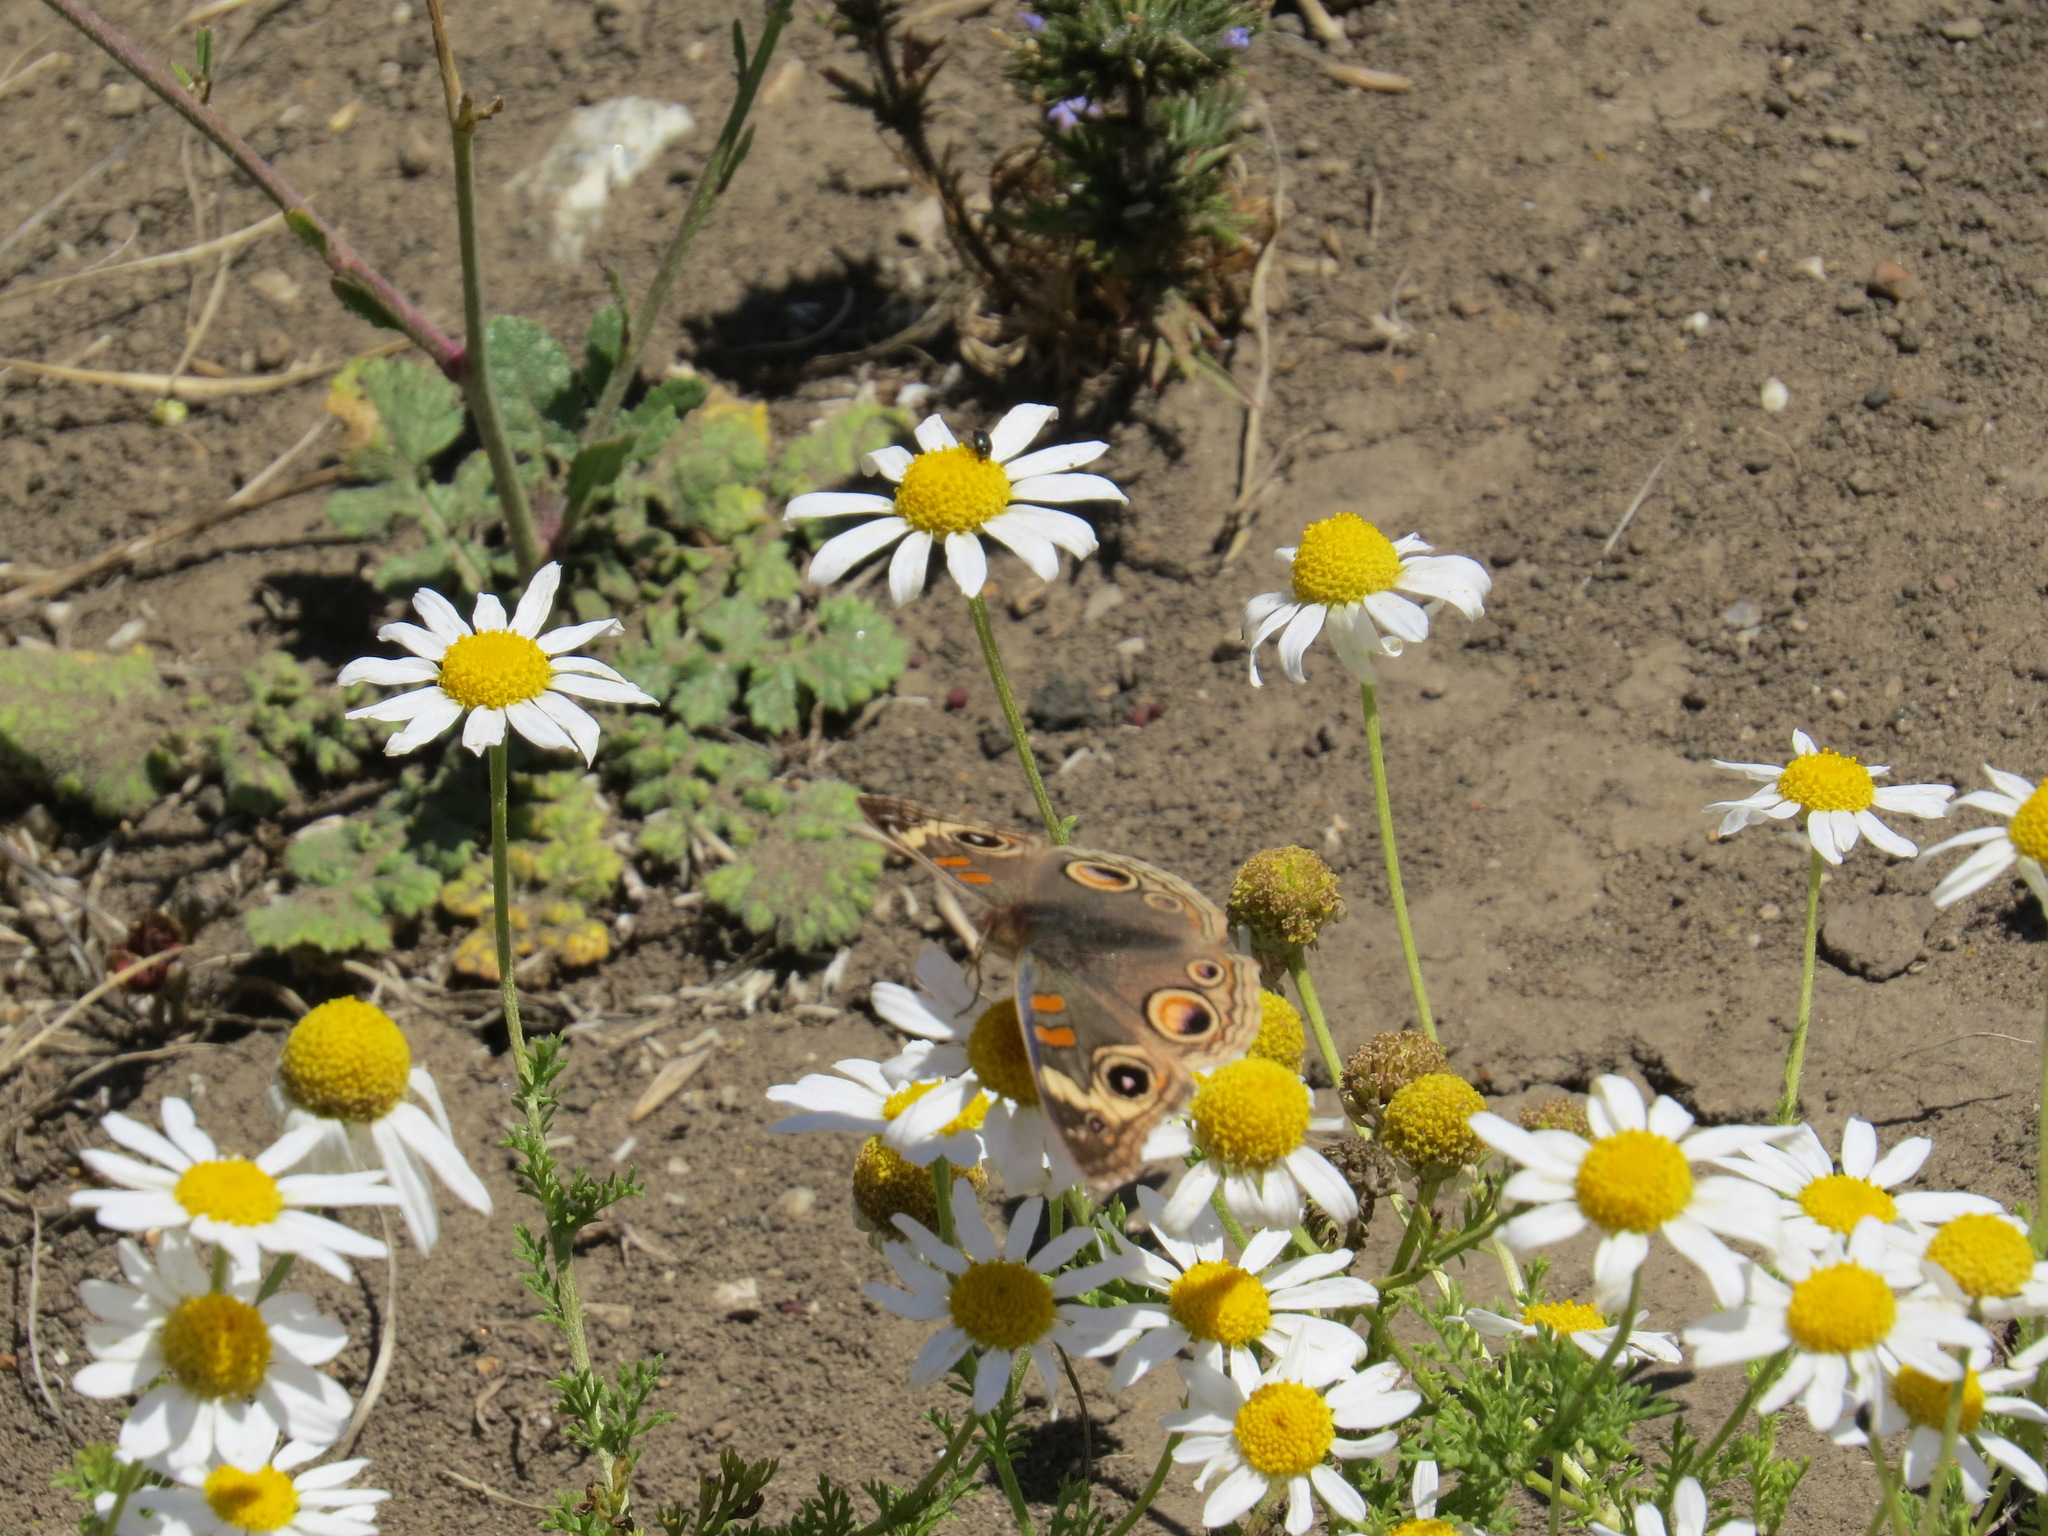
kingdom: Animalia
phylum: Arthropoda
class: Insecta
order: Lepidoptera
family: Nymphalidae
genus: Junonia
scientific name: Junonia grisea
